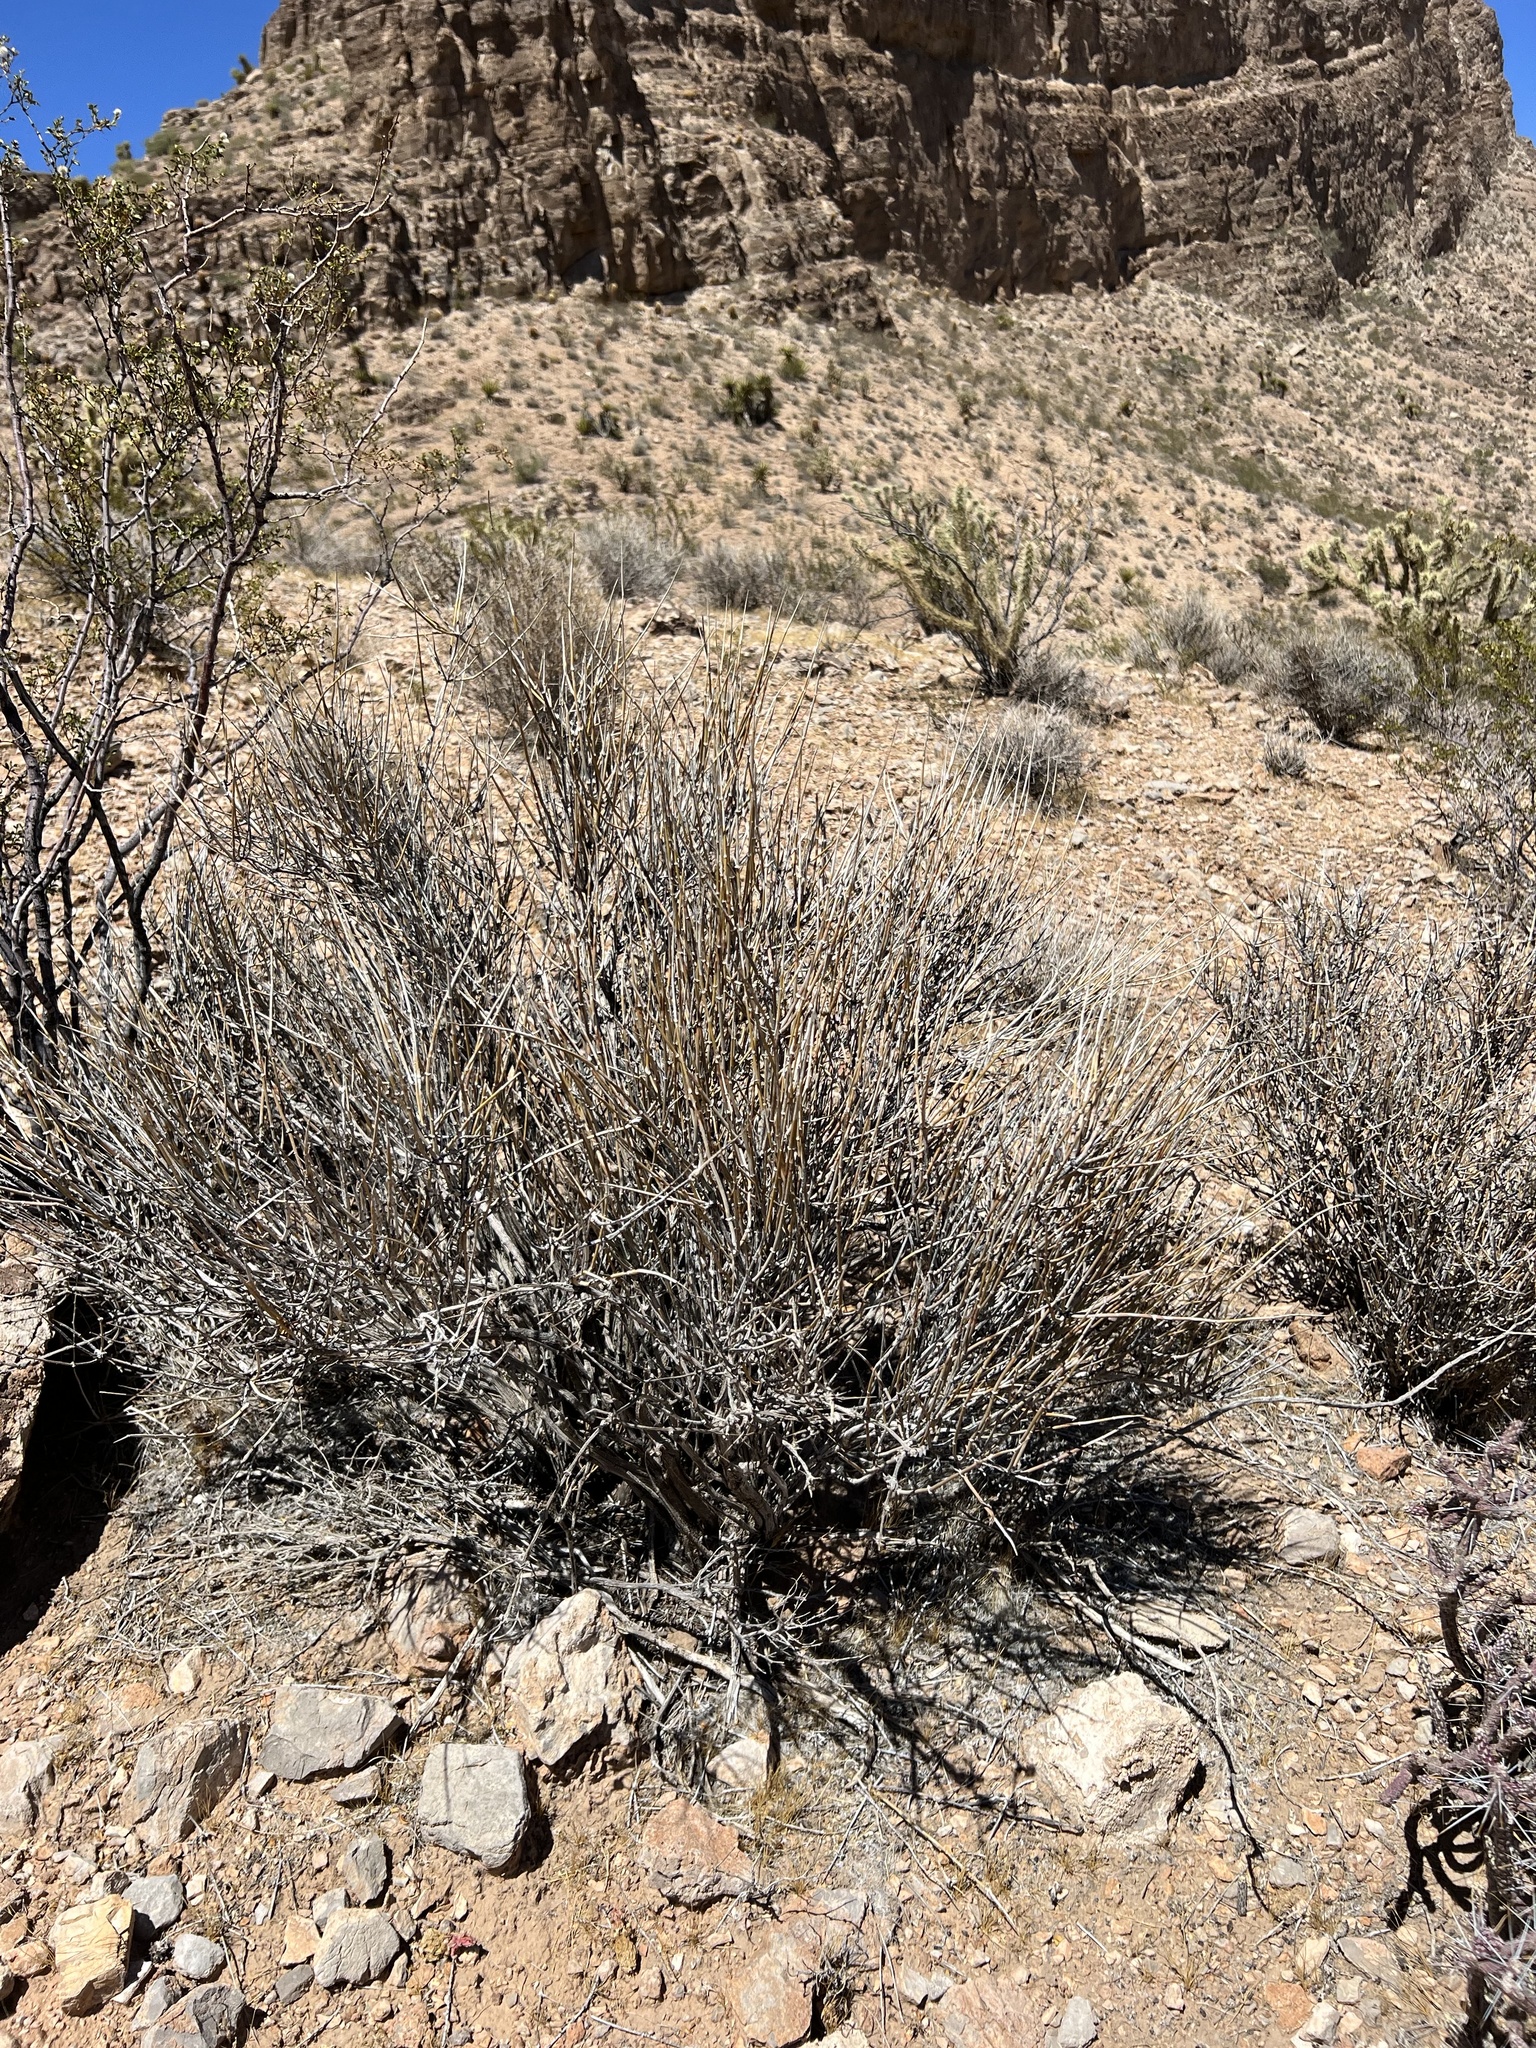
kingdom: Plantae
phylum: Tracheophyta
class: Gnetopsida
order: Ephedrales
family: Ephedraceae
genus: Ephedra
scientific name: Ephedra nevadensis
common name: Gray ephedra
